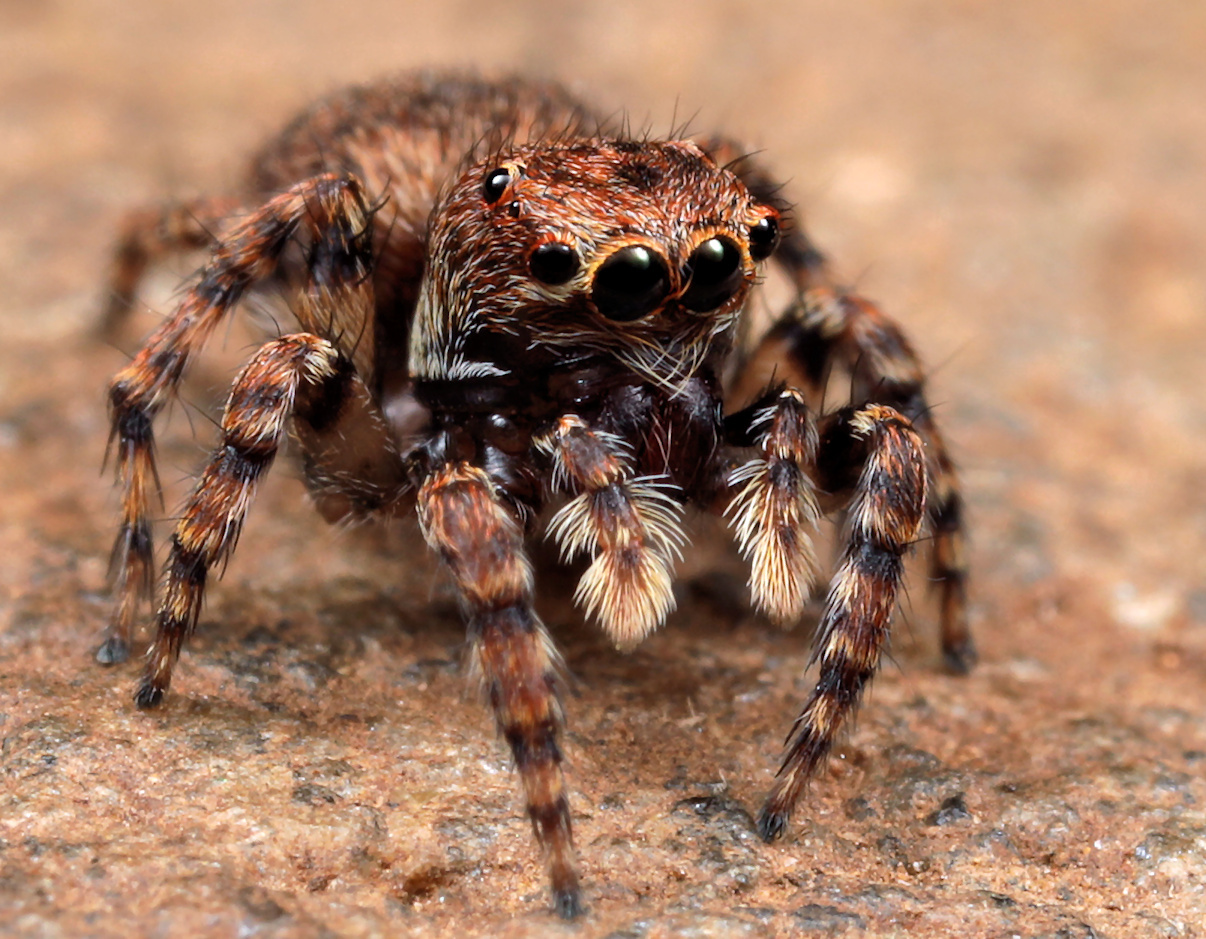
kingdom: Animalia
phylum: Arthropoda
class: Arachnida
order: Araneae
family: Salticidae
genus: Aelurillus
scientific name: Aelurillus cristatopalpus
